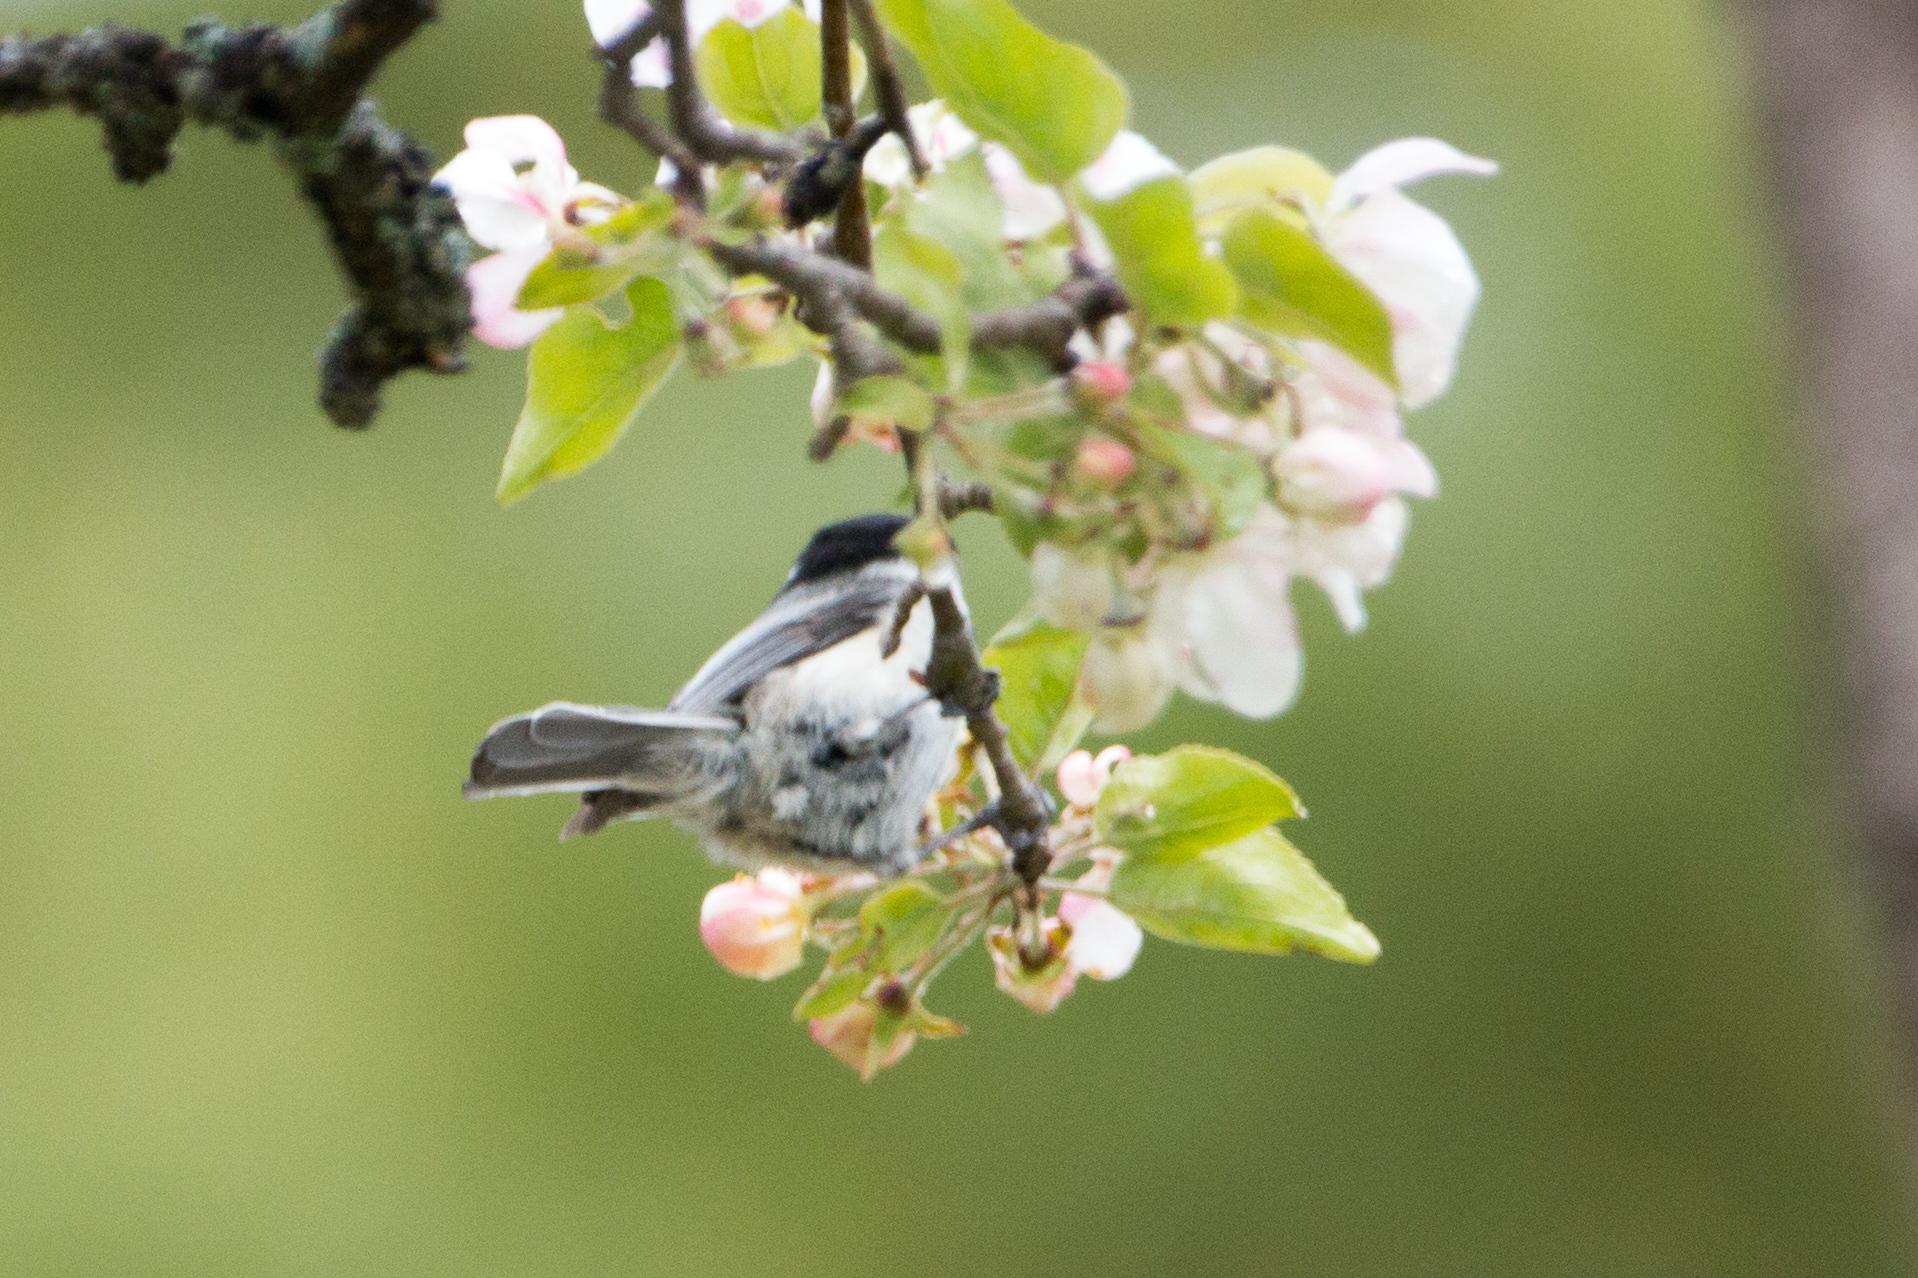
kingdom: Animalia
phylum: Chordata
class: Aves
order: Passeriformes
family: Paridae
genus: Poecile
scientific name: Poecile atricapillus
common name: Black-capped chickadee
